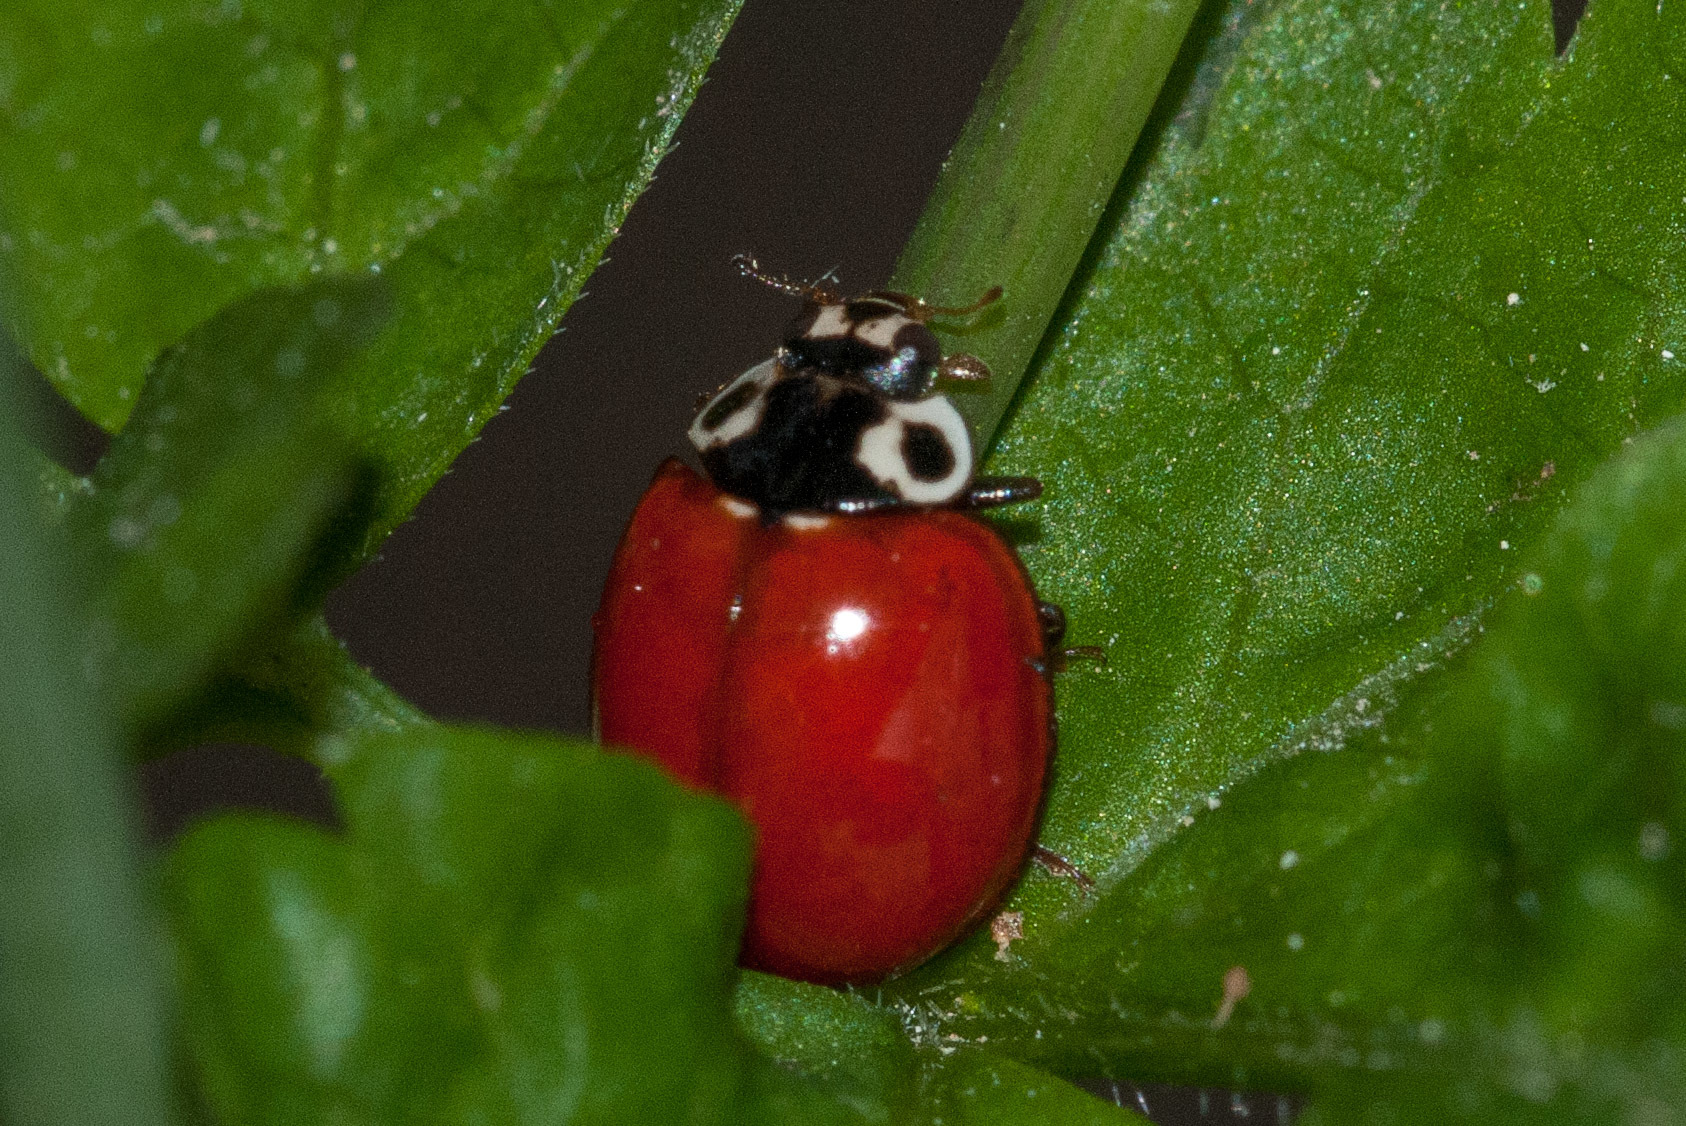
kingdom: Animalia
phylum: Arthropoda
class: Insecta
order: Coleoptera
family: Coccinellidae
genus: Cycloneda
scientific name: Cycloneda sanguinea
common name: Ladybird beetle
